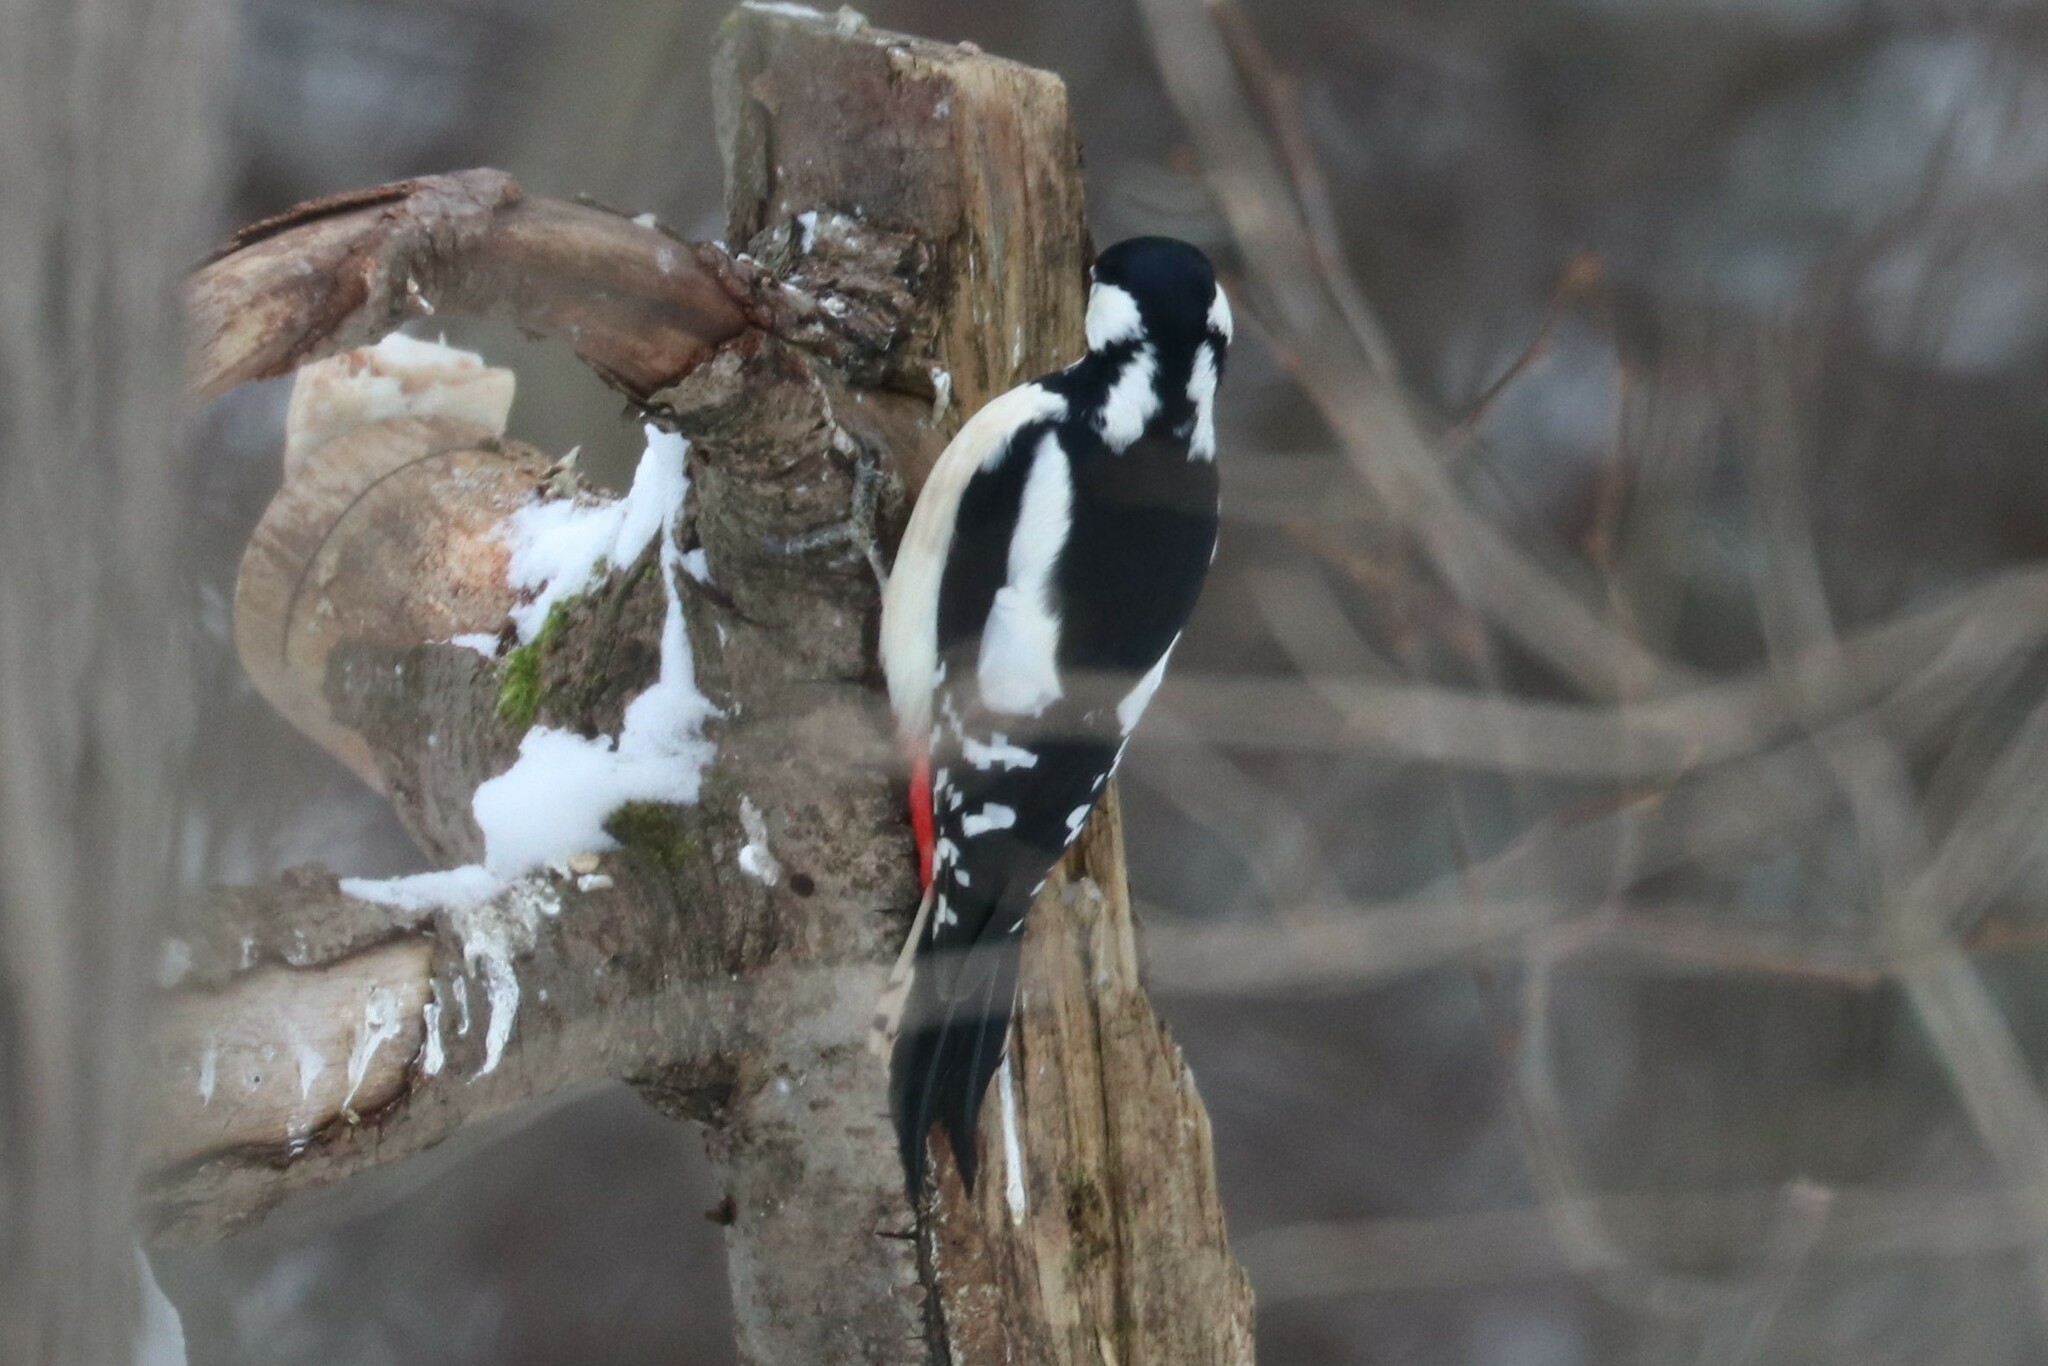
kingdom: Animalia
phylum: Chordata
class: Aves
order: Piciformes
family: Picidae
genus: Dendrocopos
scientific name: Dendrocopos major
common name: Great spotted woodpecker
